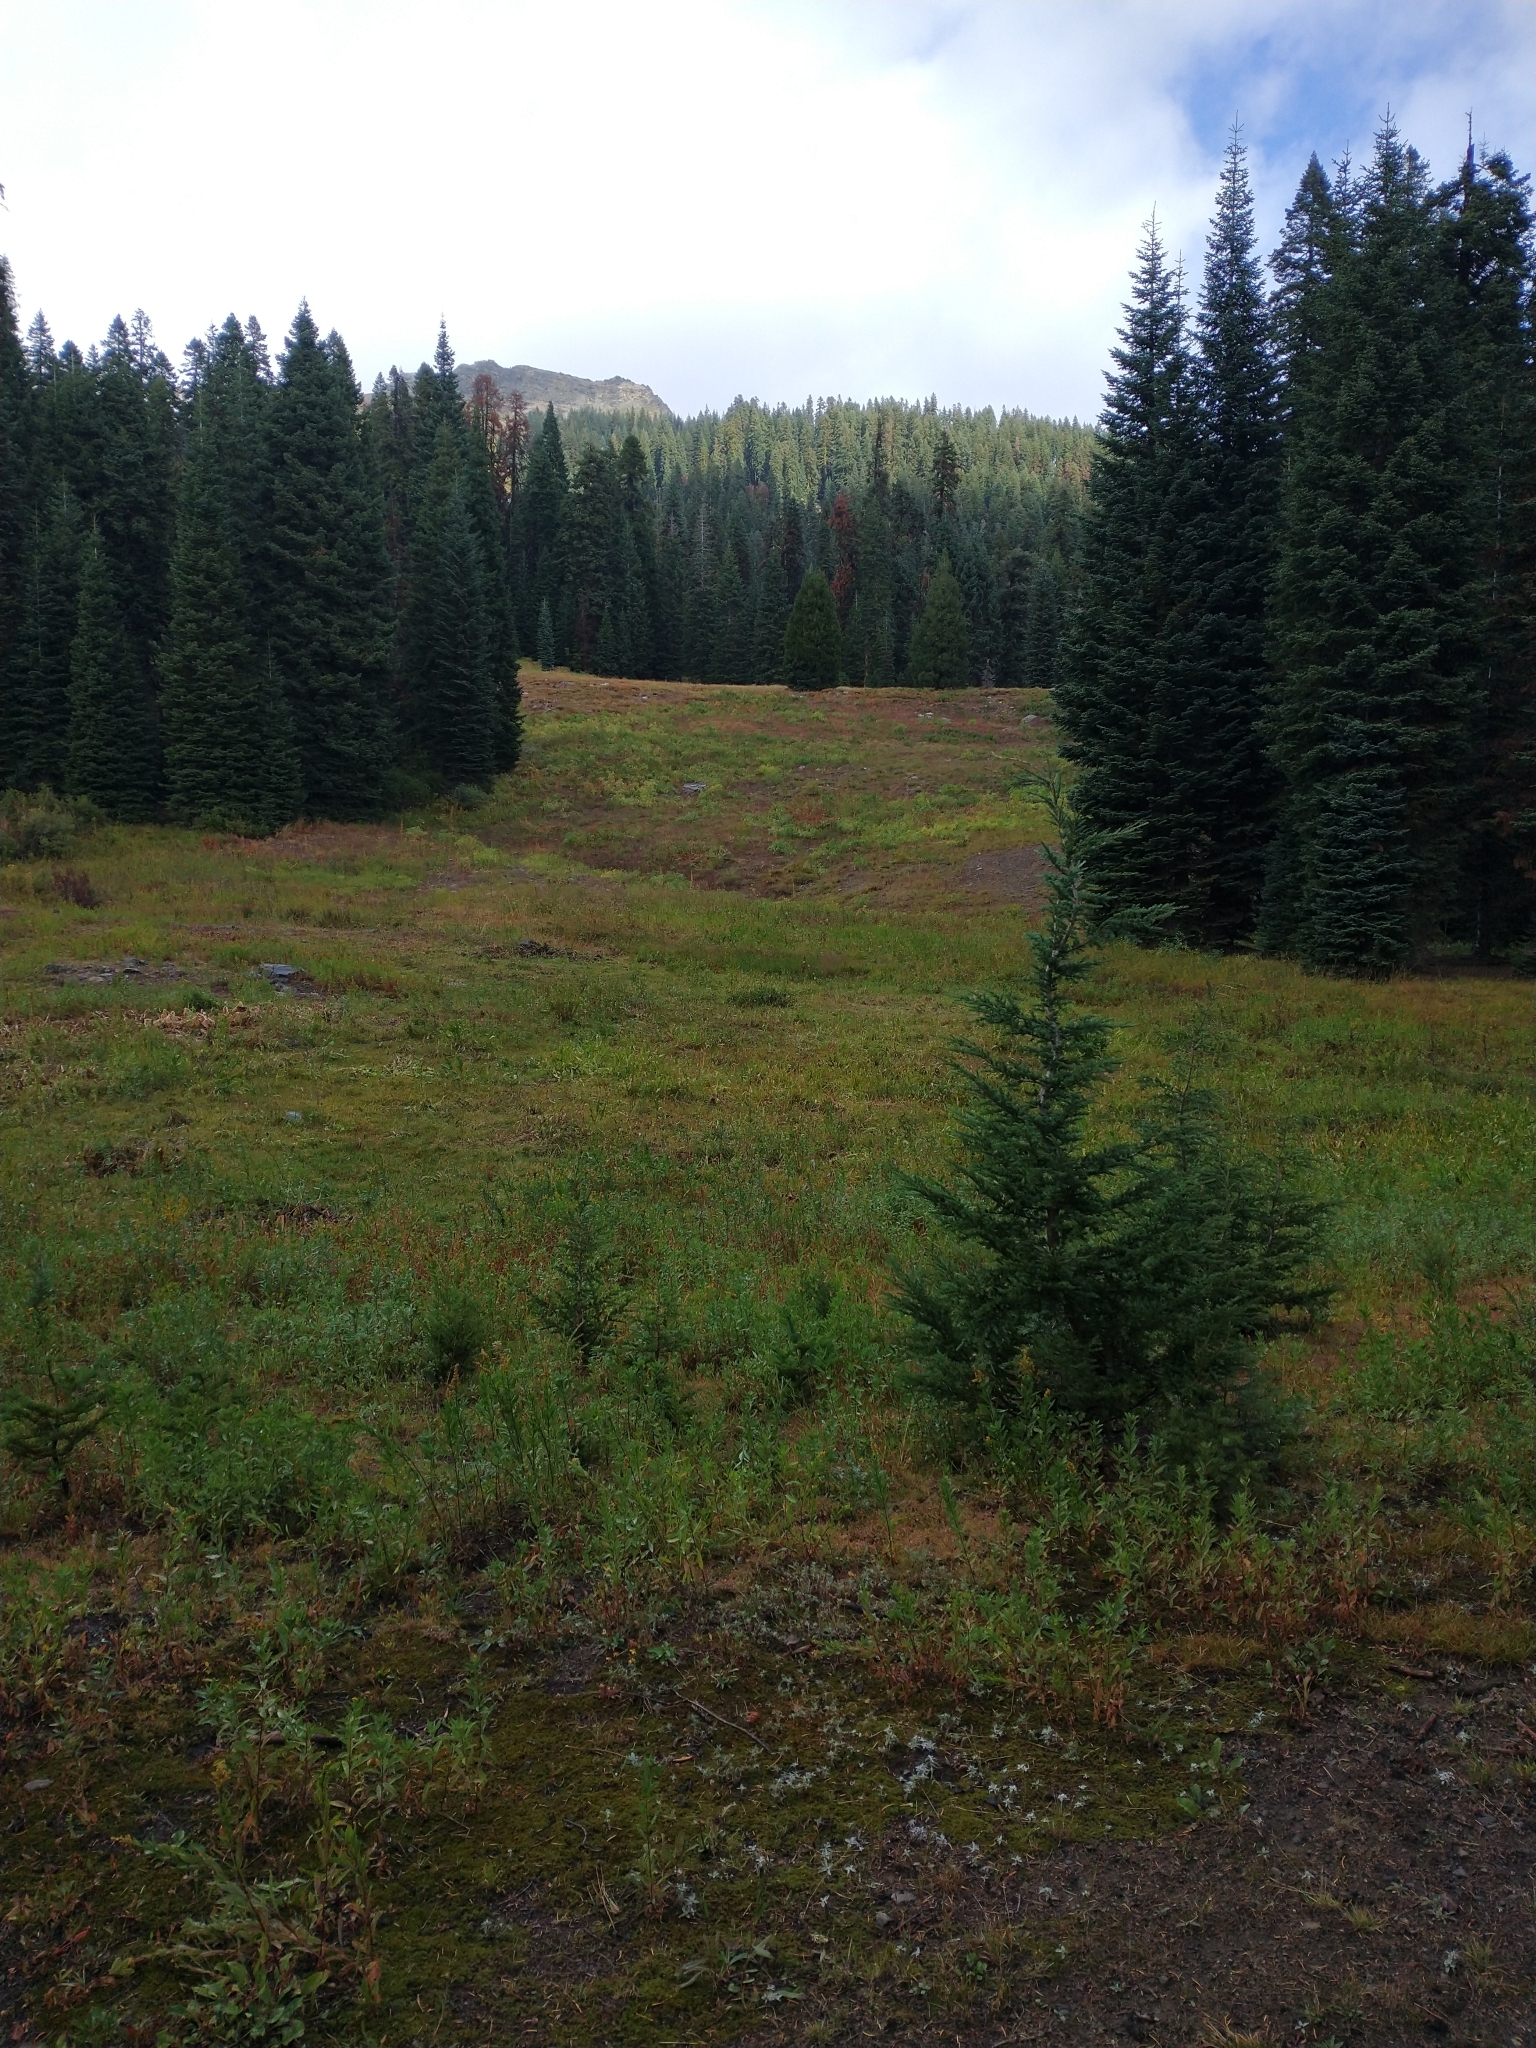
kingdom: Plantae
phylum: Tracheophyta
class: Pinopsida
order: Pinales
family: Pinaceae
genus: Tsuga
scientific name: Tsuga mertensiana
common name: Mountain hemlock
